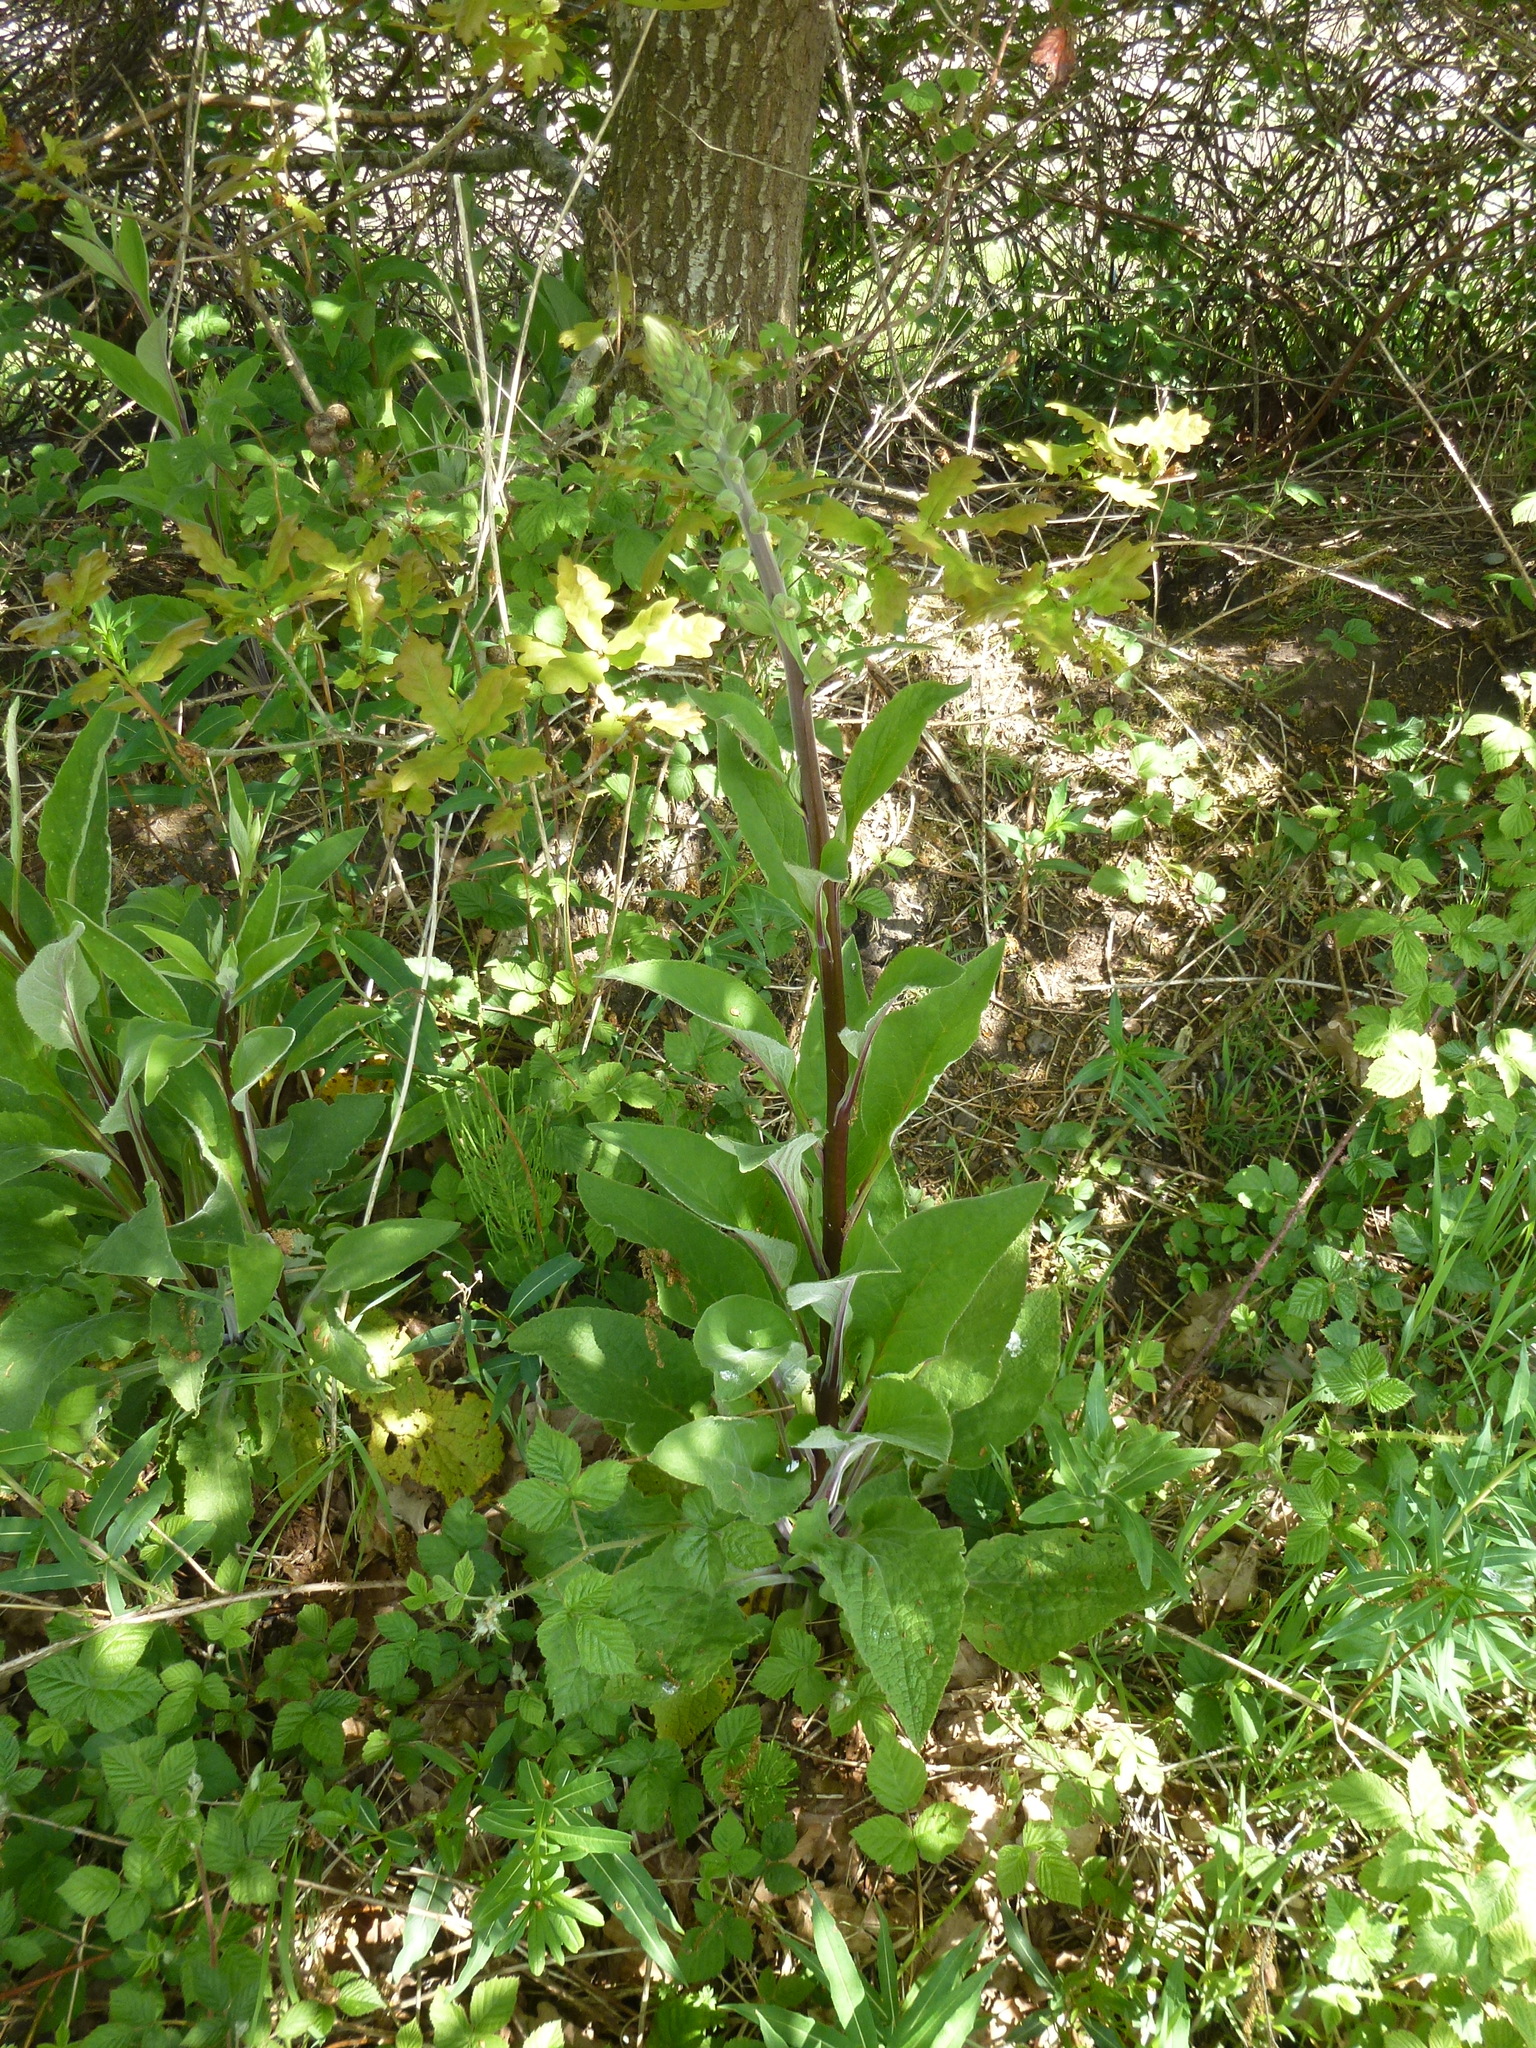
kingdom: Plantae
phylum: Tracheophyta
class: Magnoliopsida
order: Lamiales
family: Plantaginaceae
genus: Digitalis
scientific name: Digitalis purpurea
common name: Foxglove
